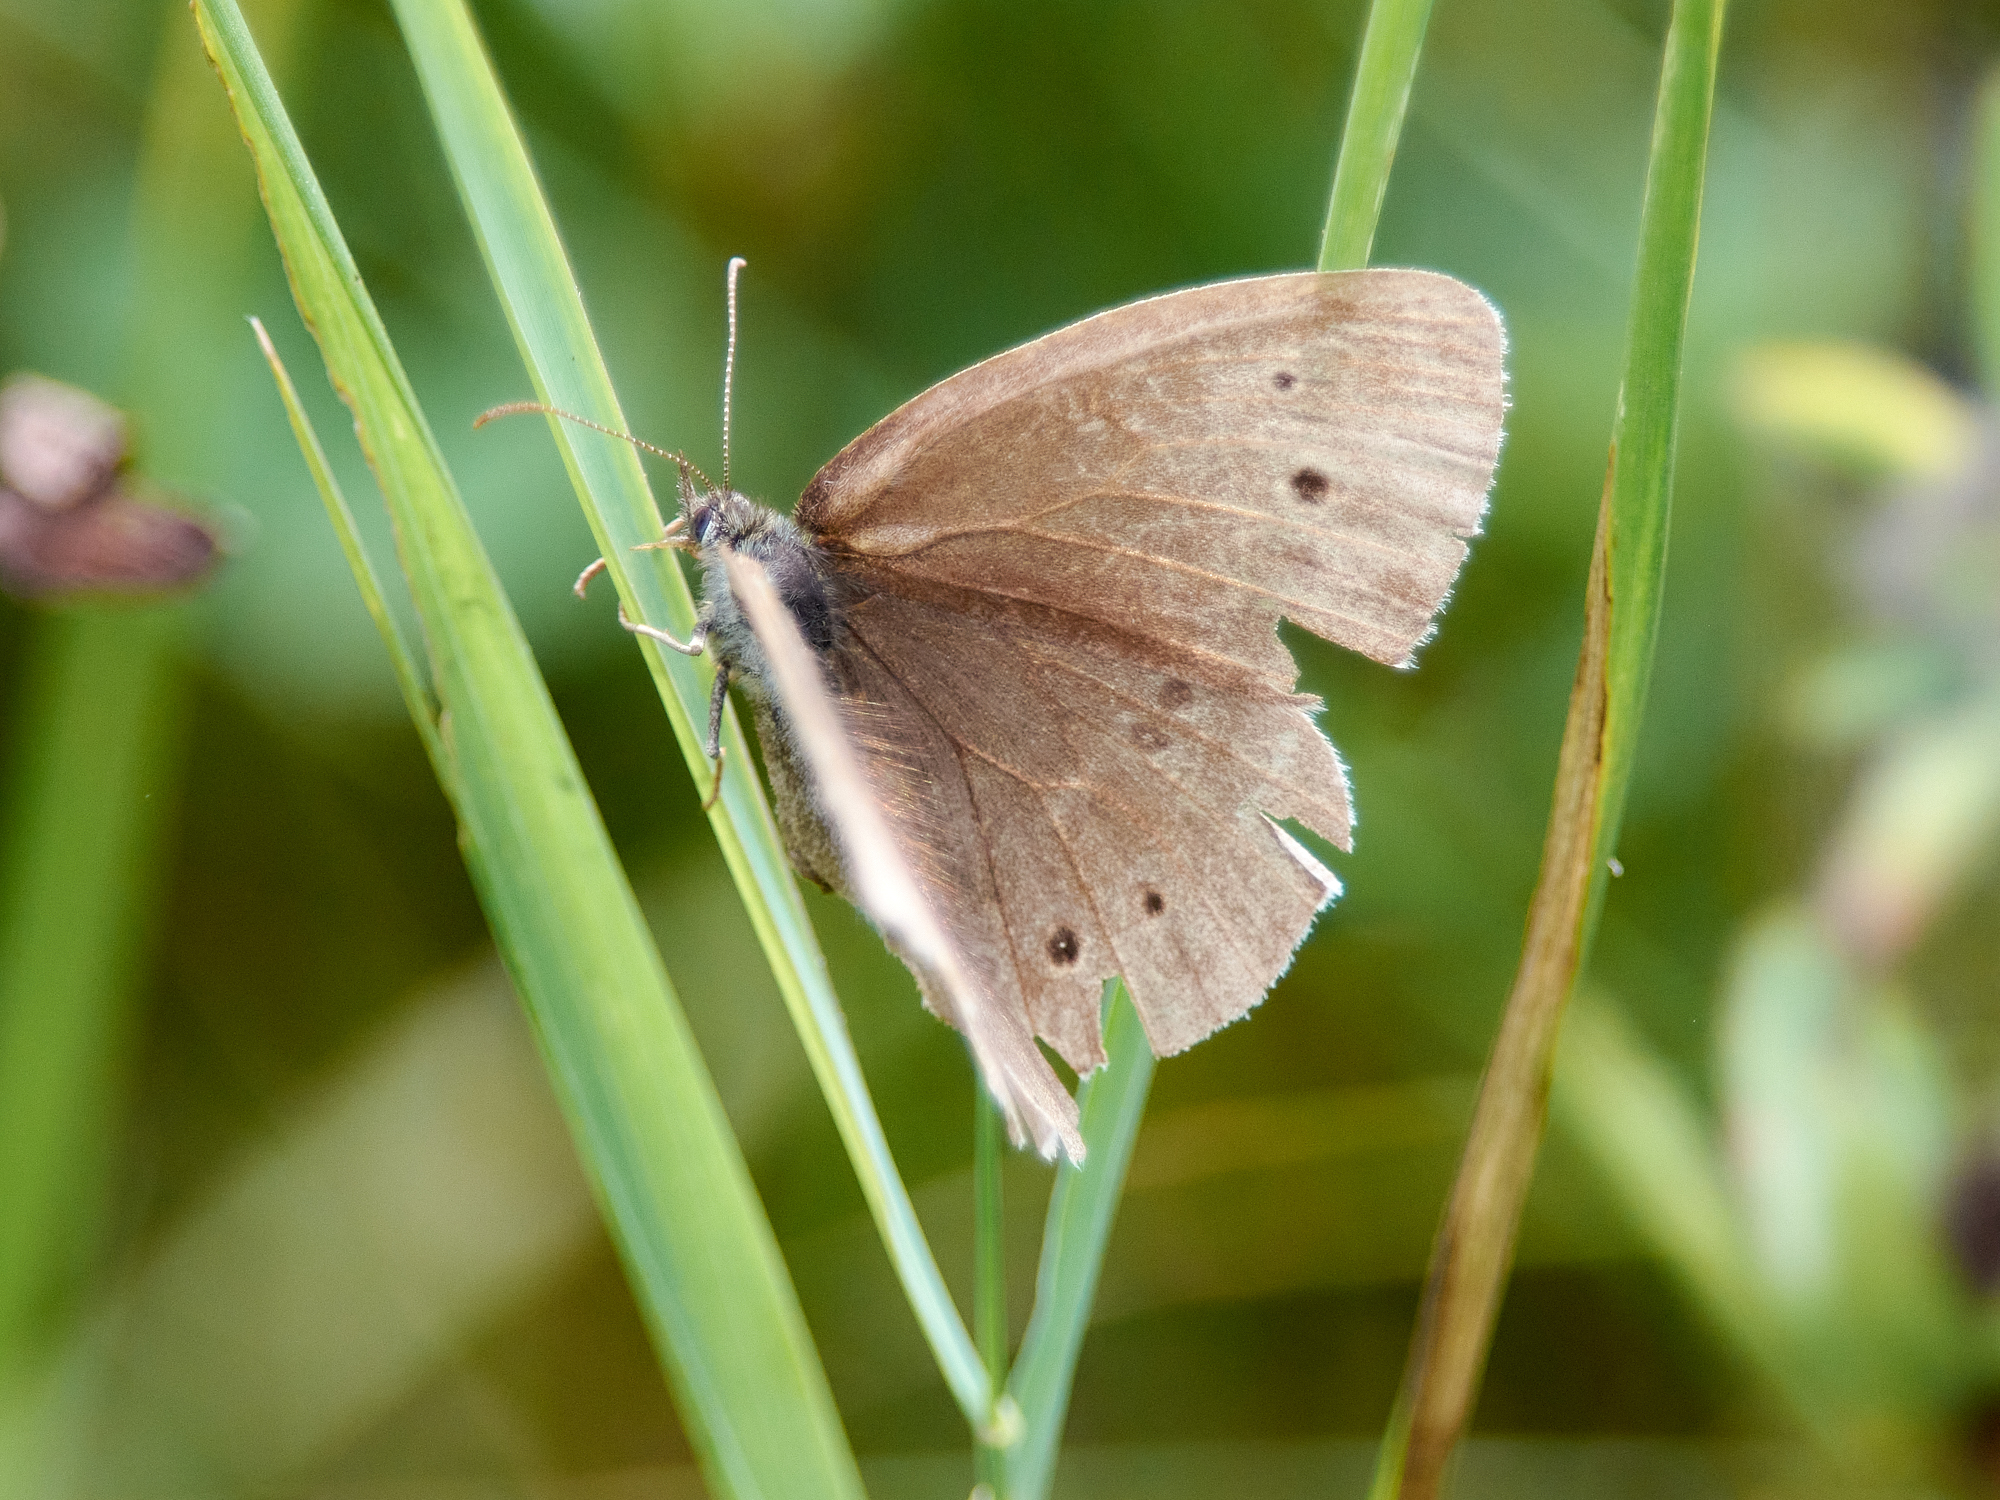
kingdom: Animalia
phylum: Arthropoda
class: Insecta
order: Lepidoptera
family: Nymphalidae
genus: Aphantopus
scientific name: Aphantopus hyperantus
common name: Ringlet
